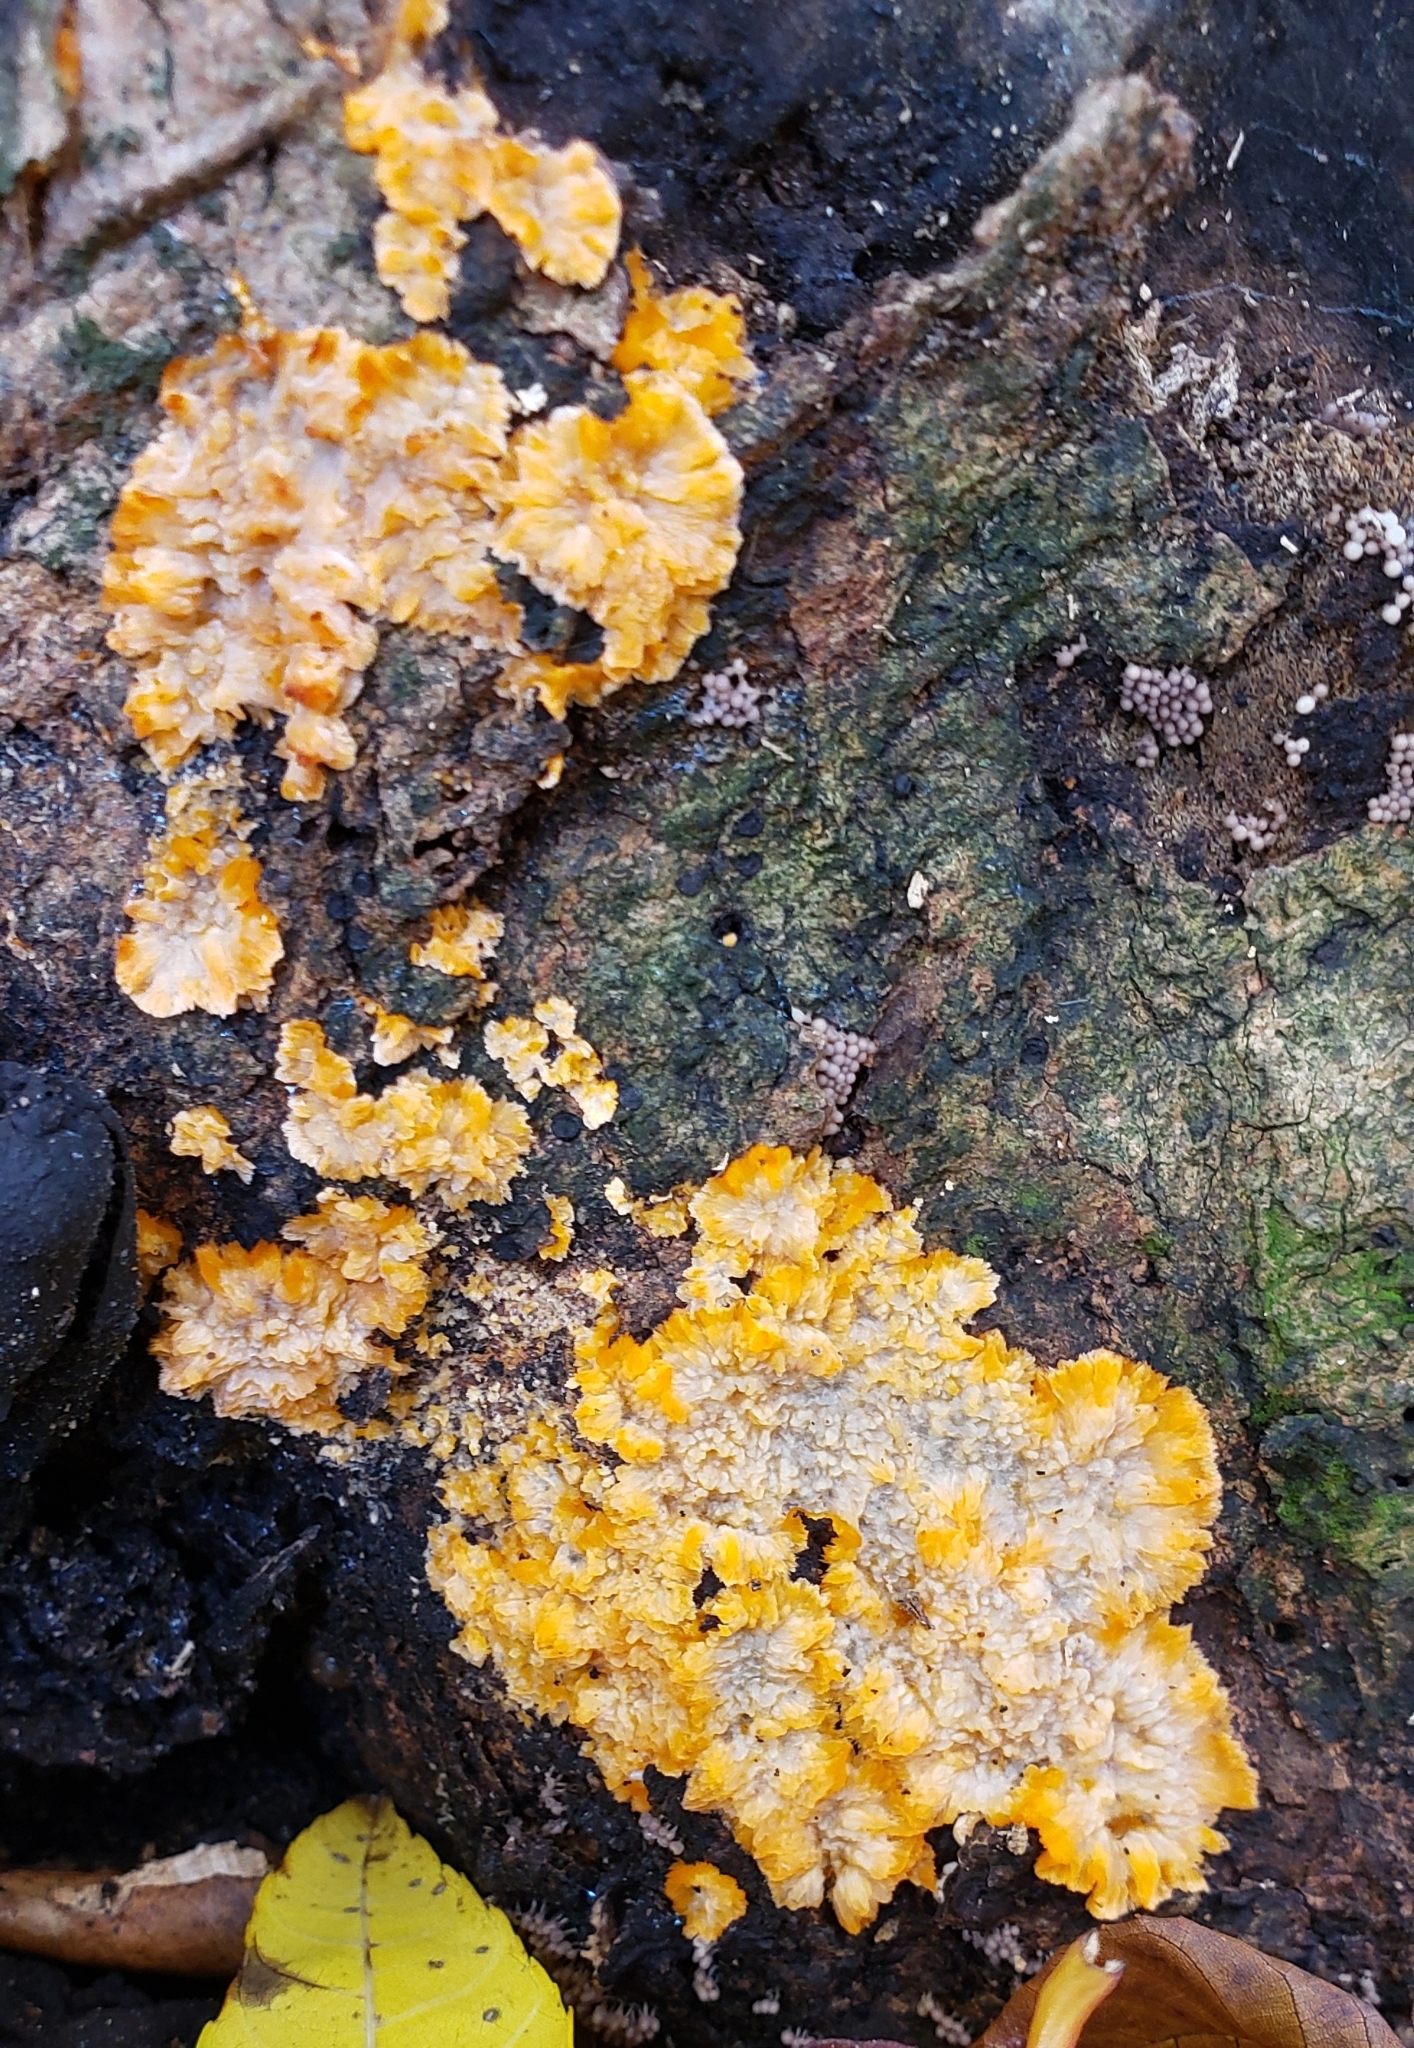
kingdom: Fungi
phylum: Basidiomycota
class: Agaricomycetes
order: Polyporales
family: Meruliaceae
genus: Phlebia
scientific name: Phlebia radiata
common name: Wrinkled crust
